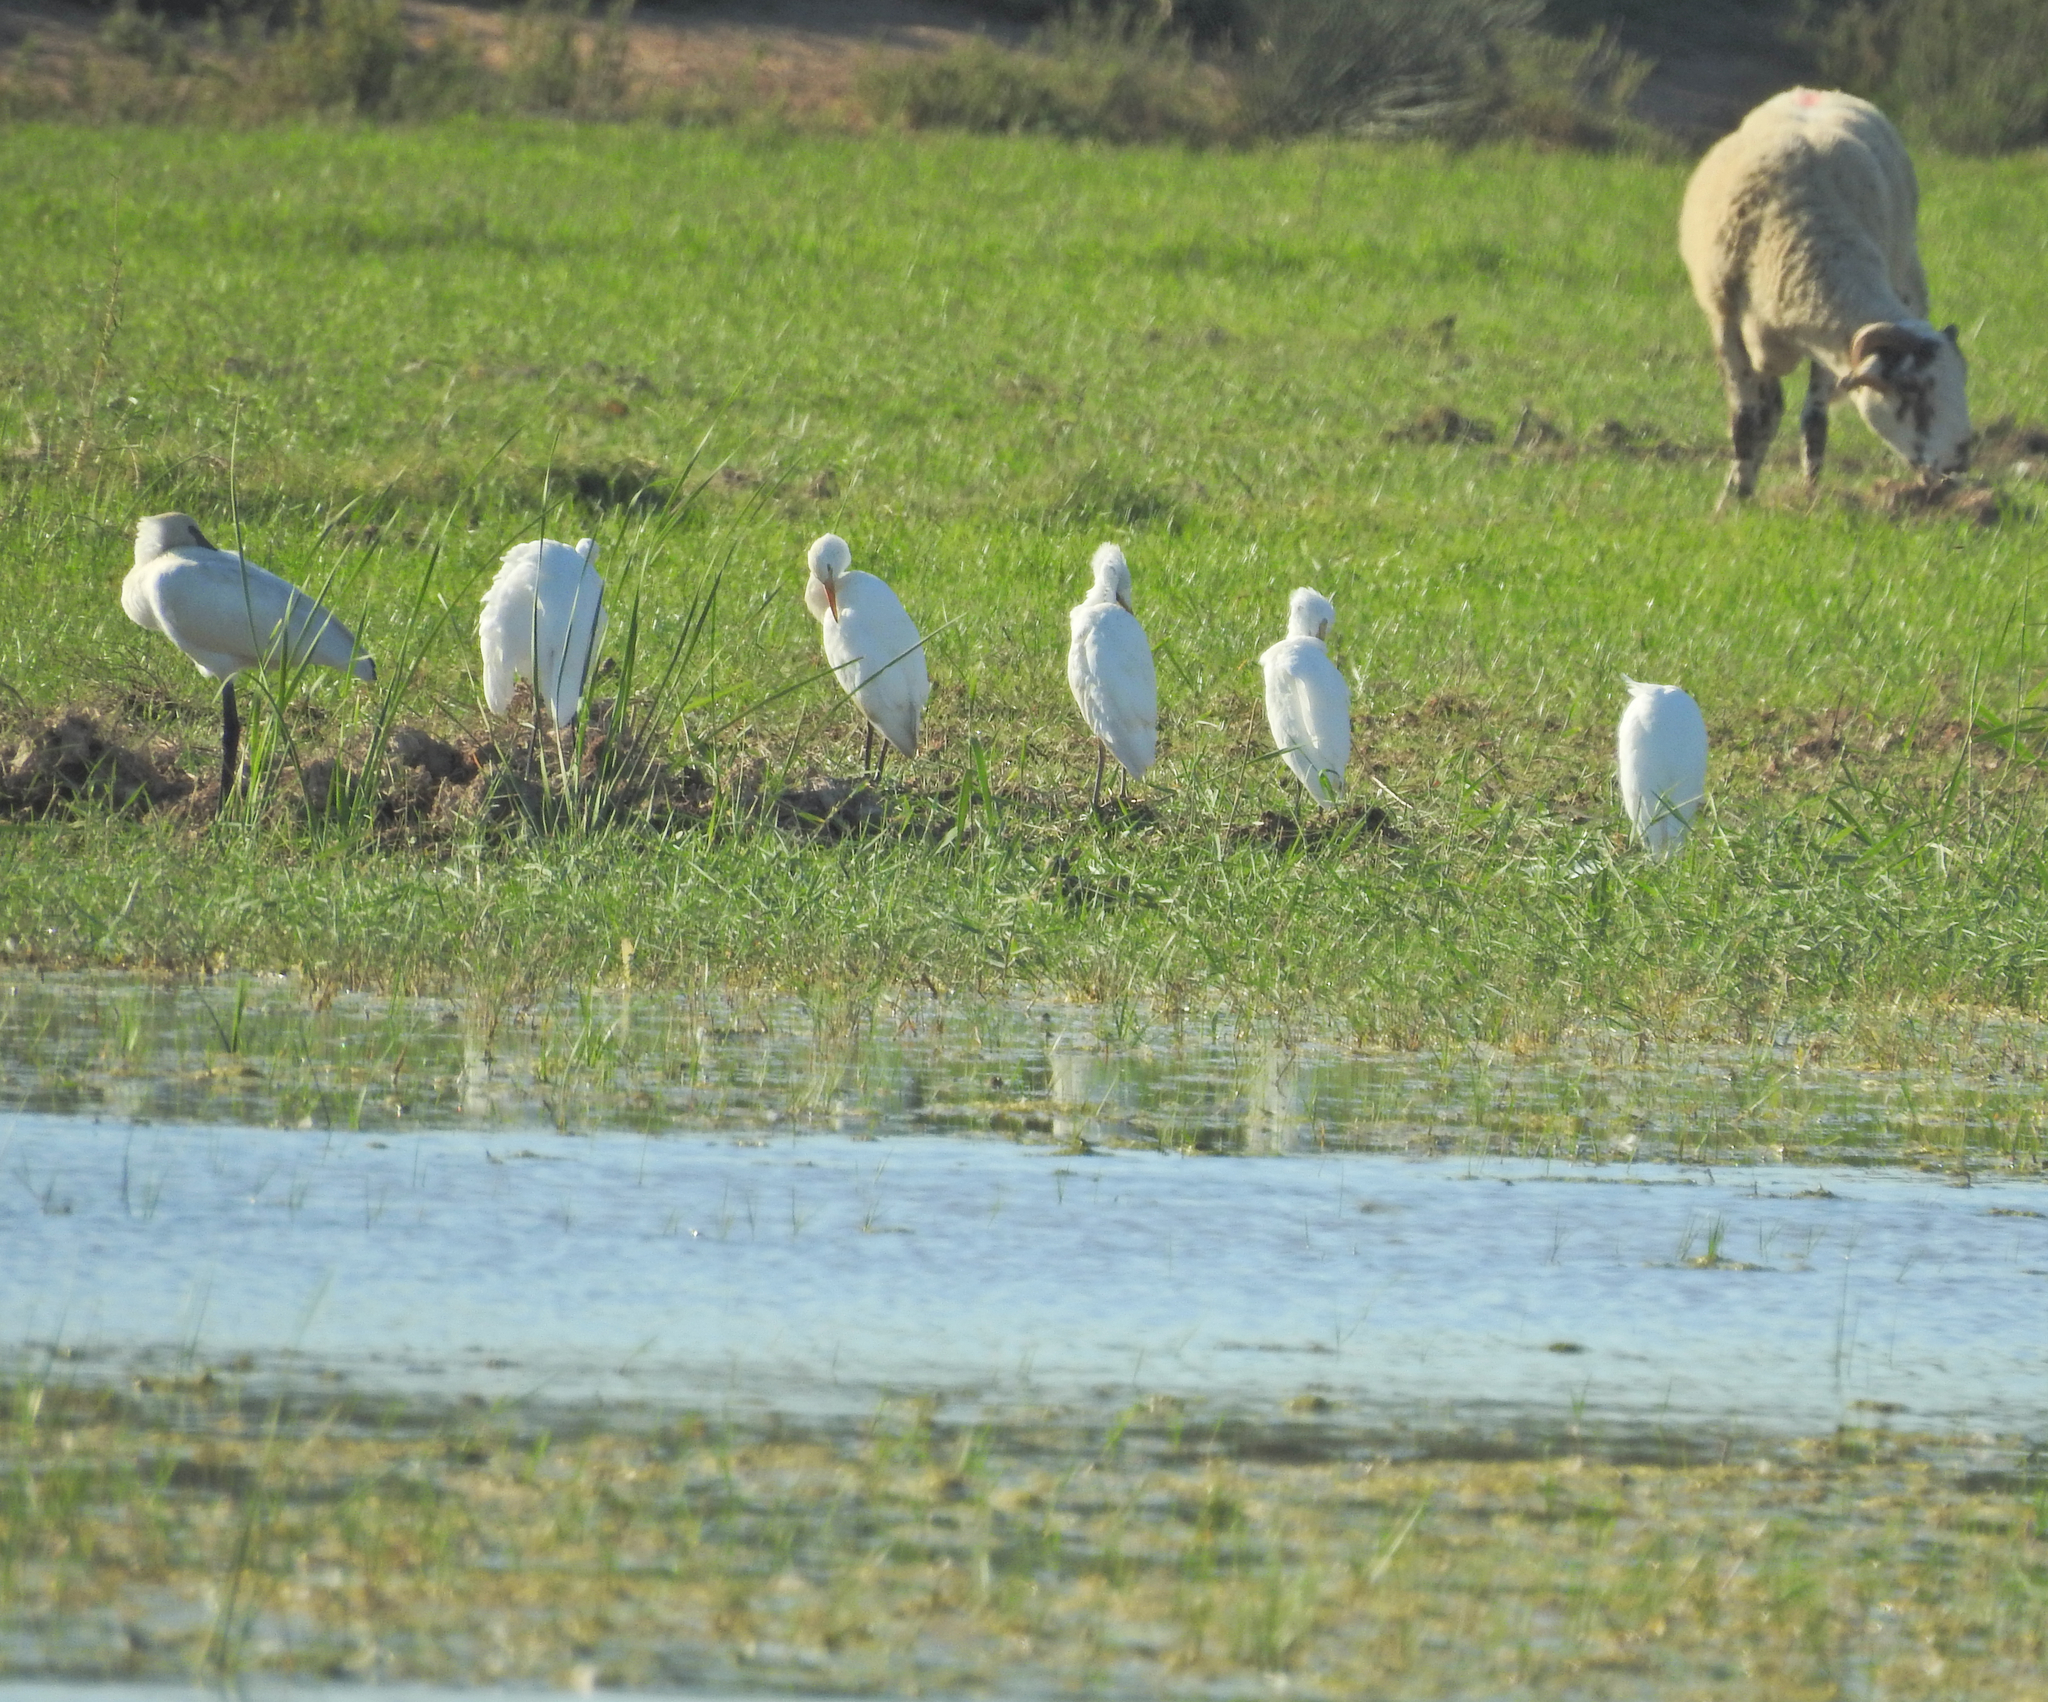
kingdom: Animalia
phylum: Chordata
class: Aves
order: Pelecaniformes
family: Ardeidae
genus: Bubulcus
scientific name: Bubulcus ibis
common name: Cattle egret
